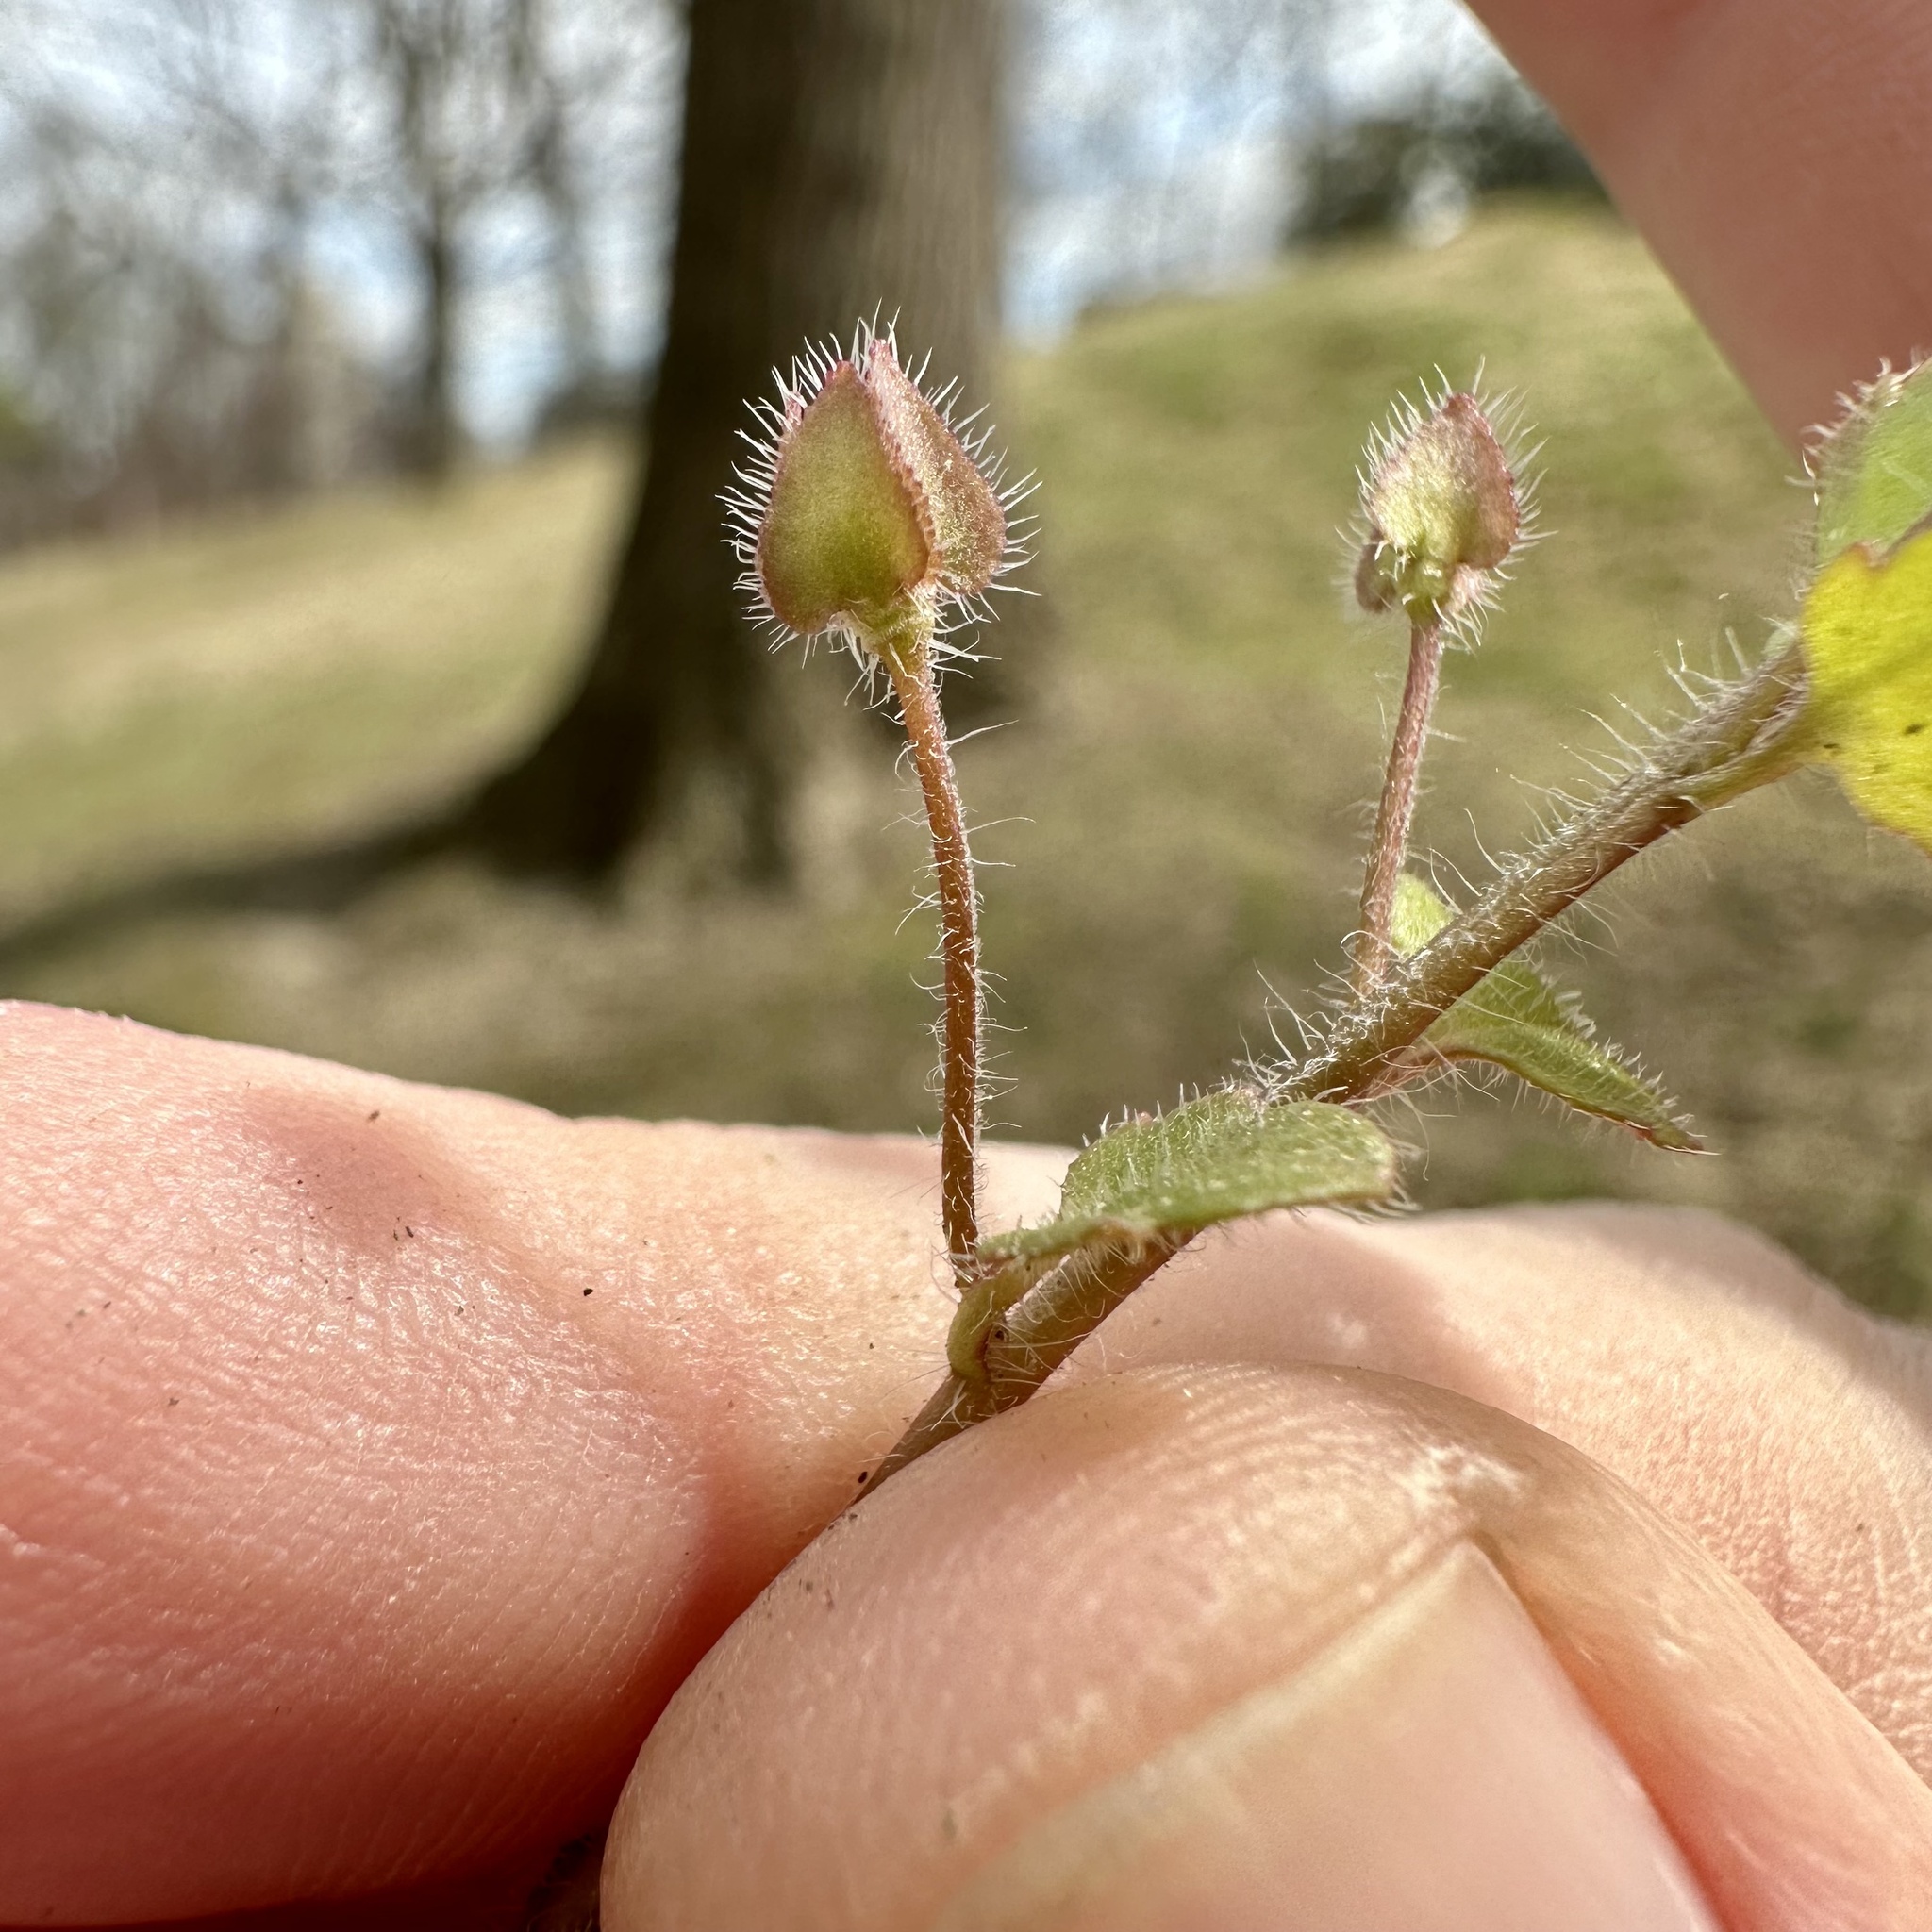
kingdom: Plantae
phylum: Tracheophyta
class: Magnoliopsida
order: Lamiales
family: Plantaginaceae
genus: Veronica
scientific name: Veronica sublobata
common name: False ivy-leaved speedwell
